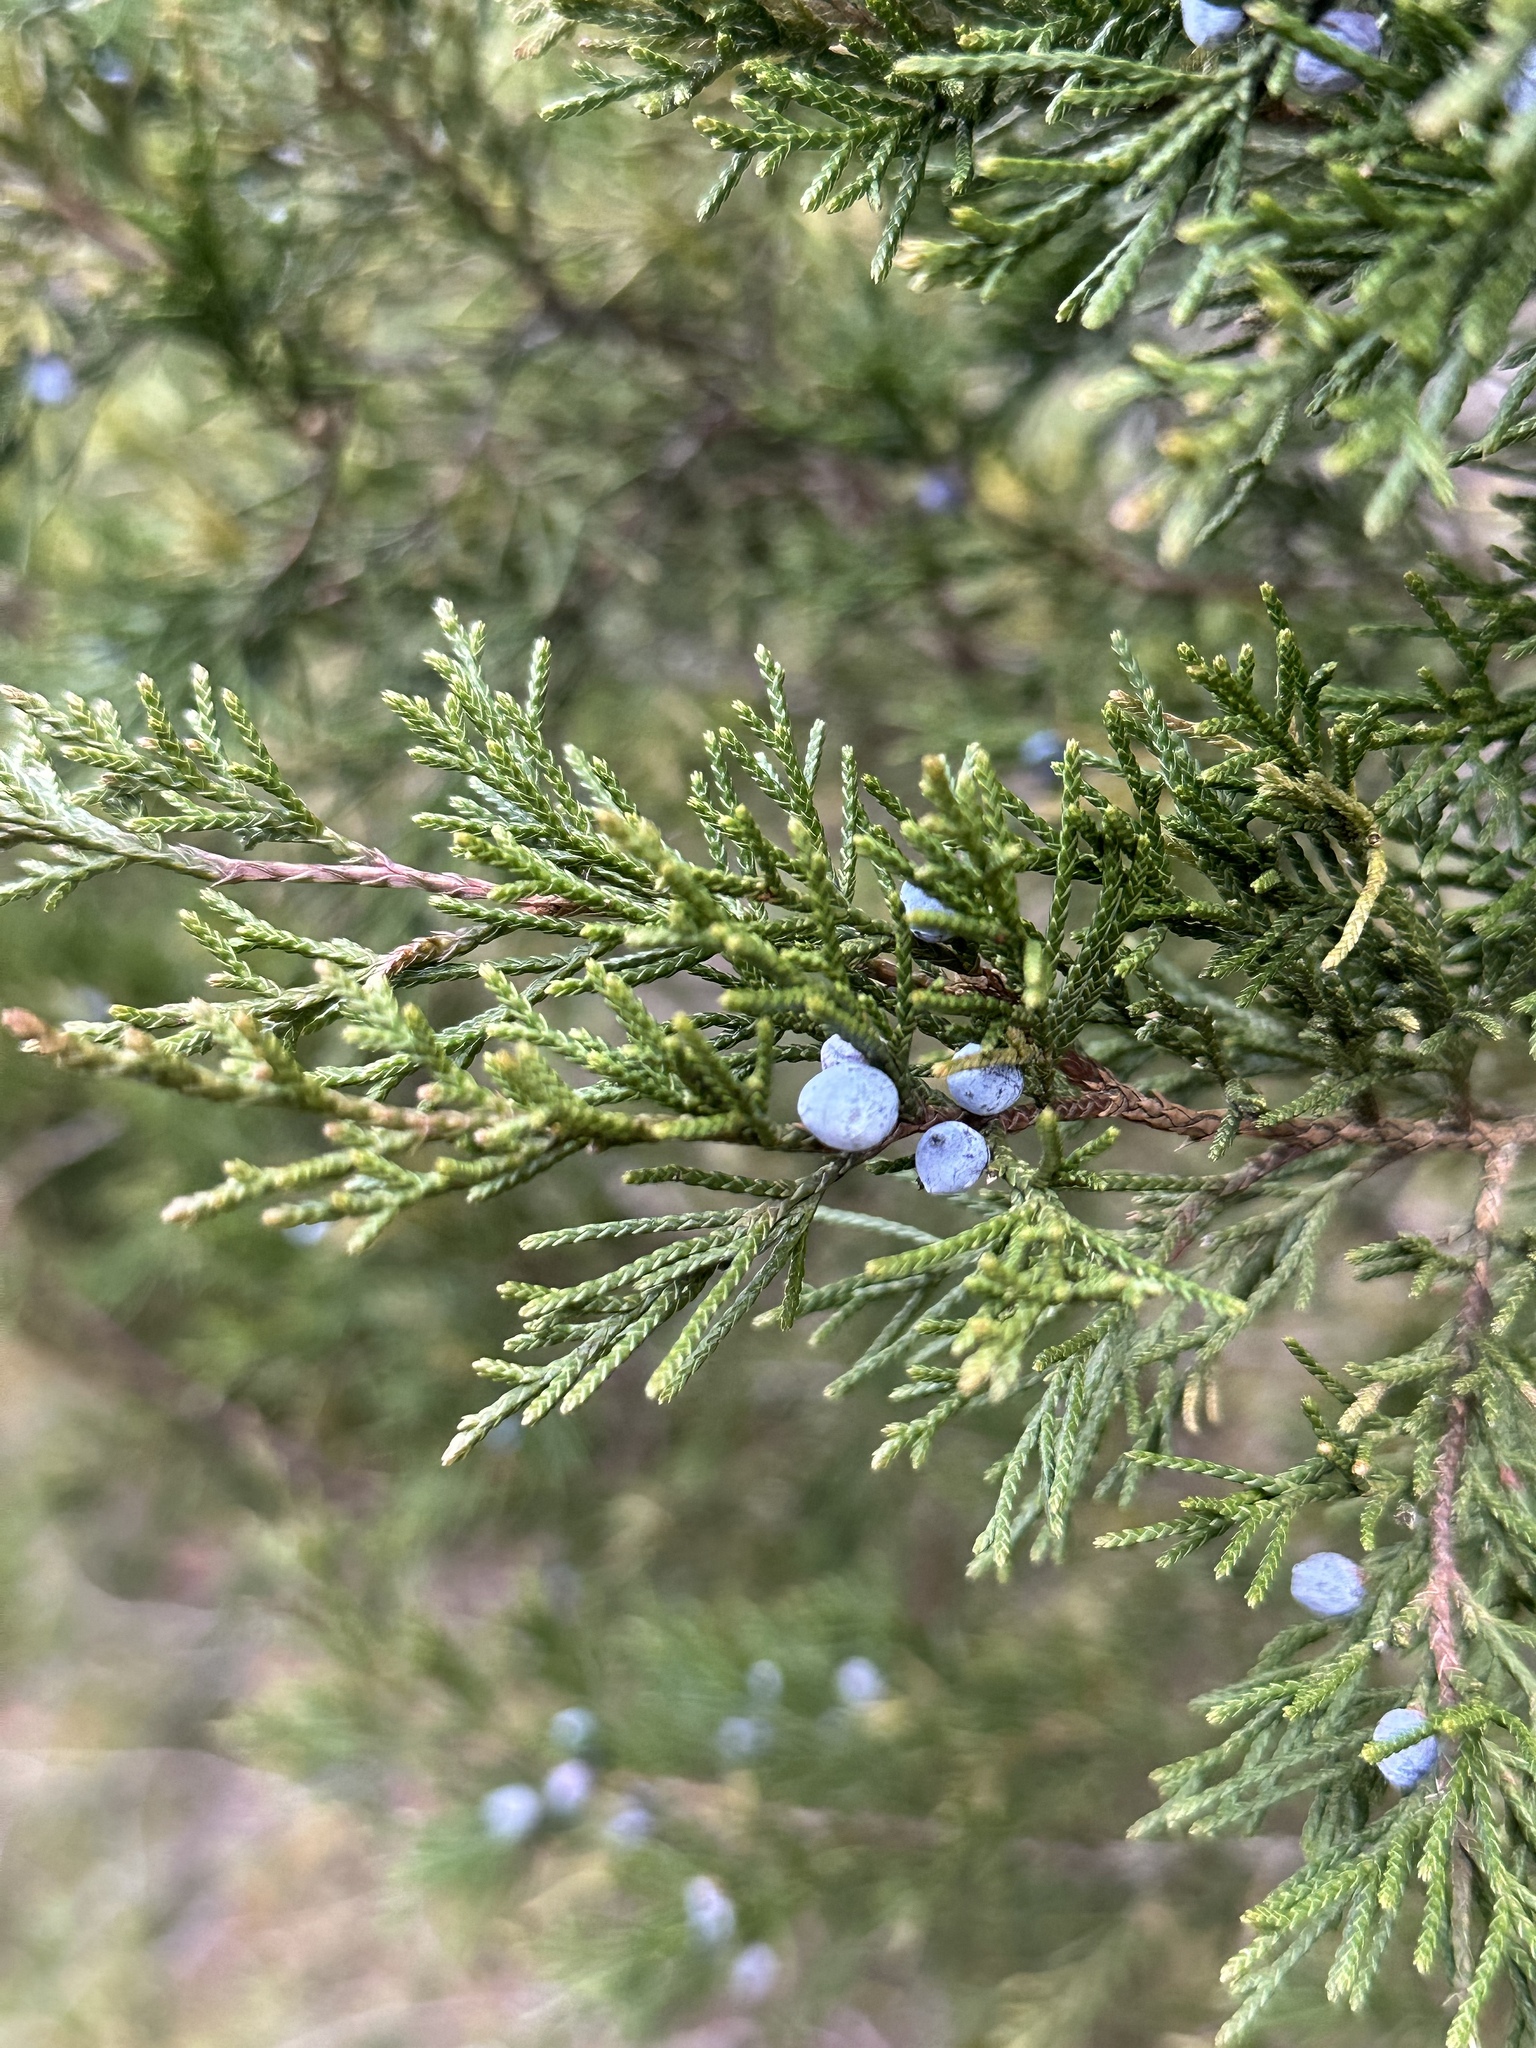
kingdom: Plantae
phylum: Tracheophyta
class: Pinopsida
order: Pinales
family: Cupressaceae
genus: Juniperus
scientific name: Juniperus virginiana
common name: Red juniper
